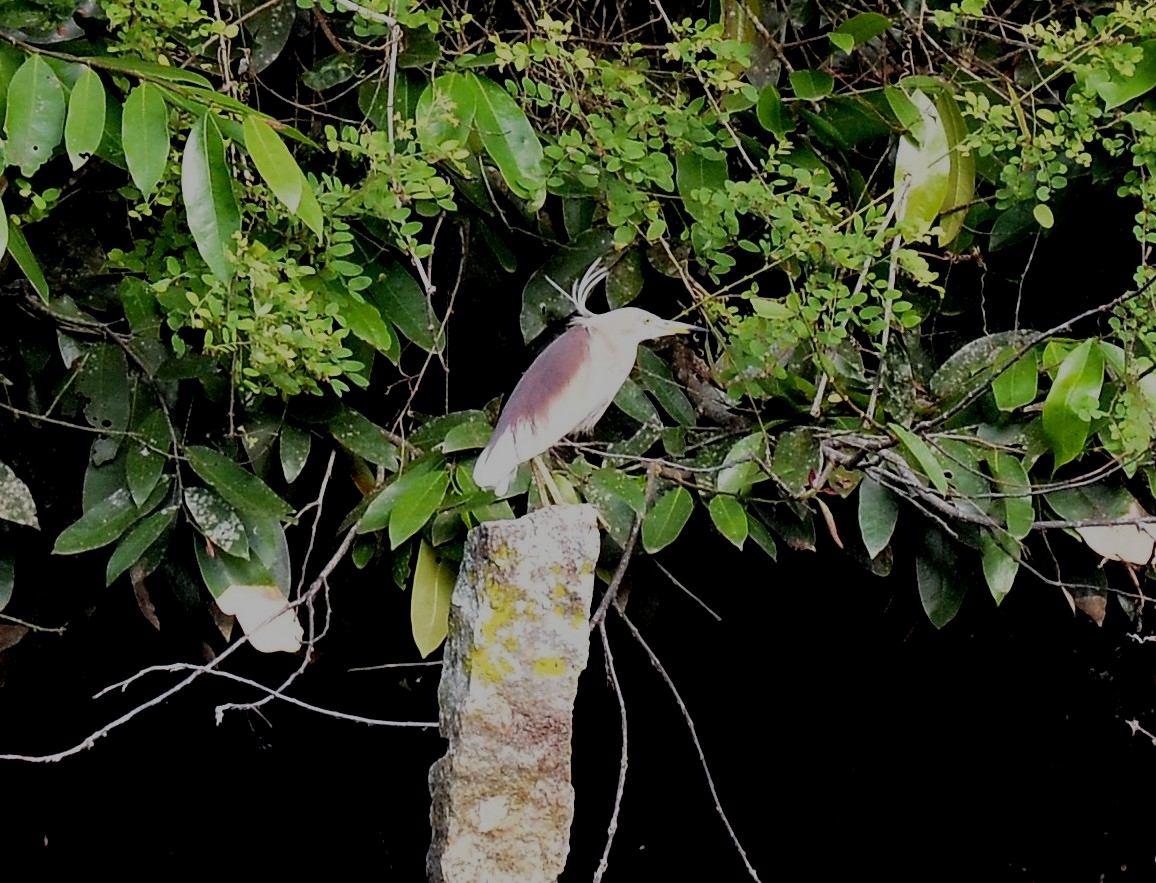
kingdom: Animalia
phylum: Chordata
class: Aves
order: Pelecaniformes
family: Ardeidae
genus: Ardeola
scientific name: Ardeola grayii
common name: Indian pond heron
